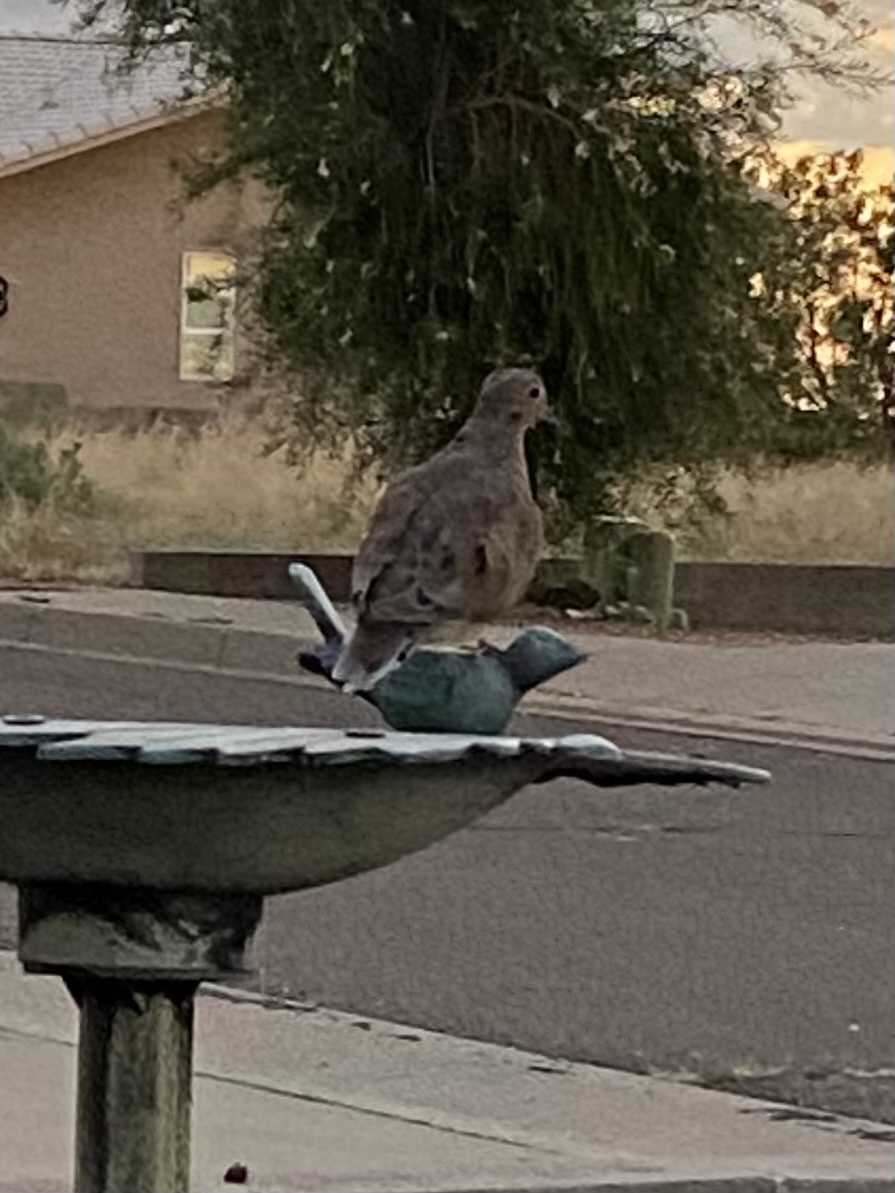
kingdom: Animalia
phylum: Chordata
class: Aves
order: Columbiformes
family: Columbidae
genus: Zenaida
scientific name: Zenaida macroura
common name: Mourning dove
